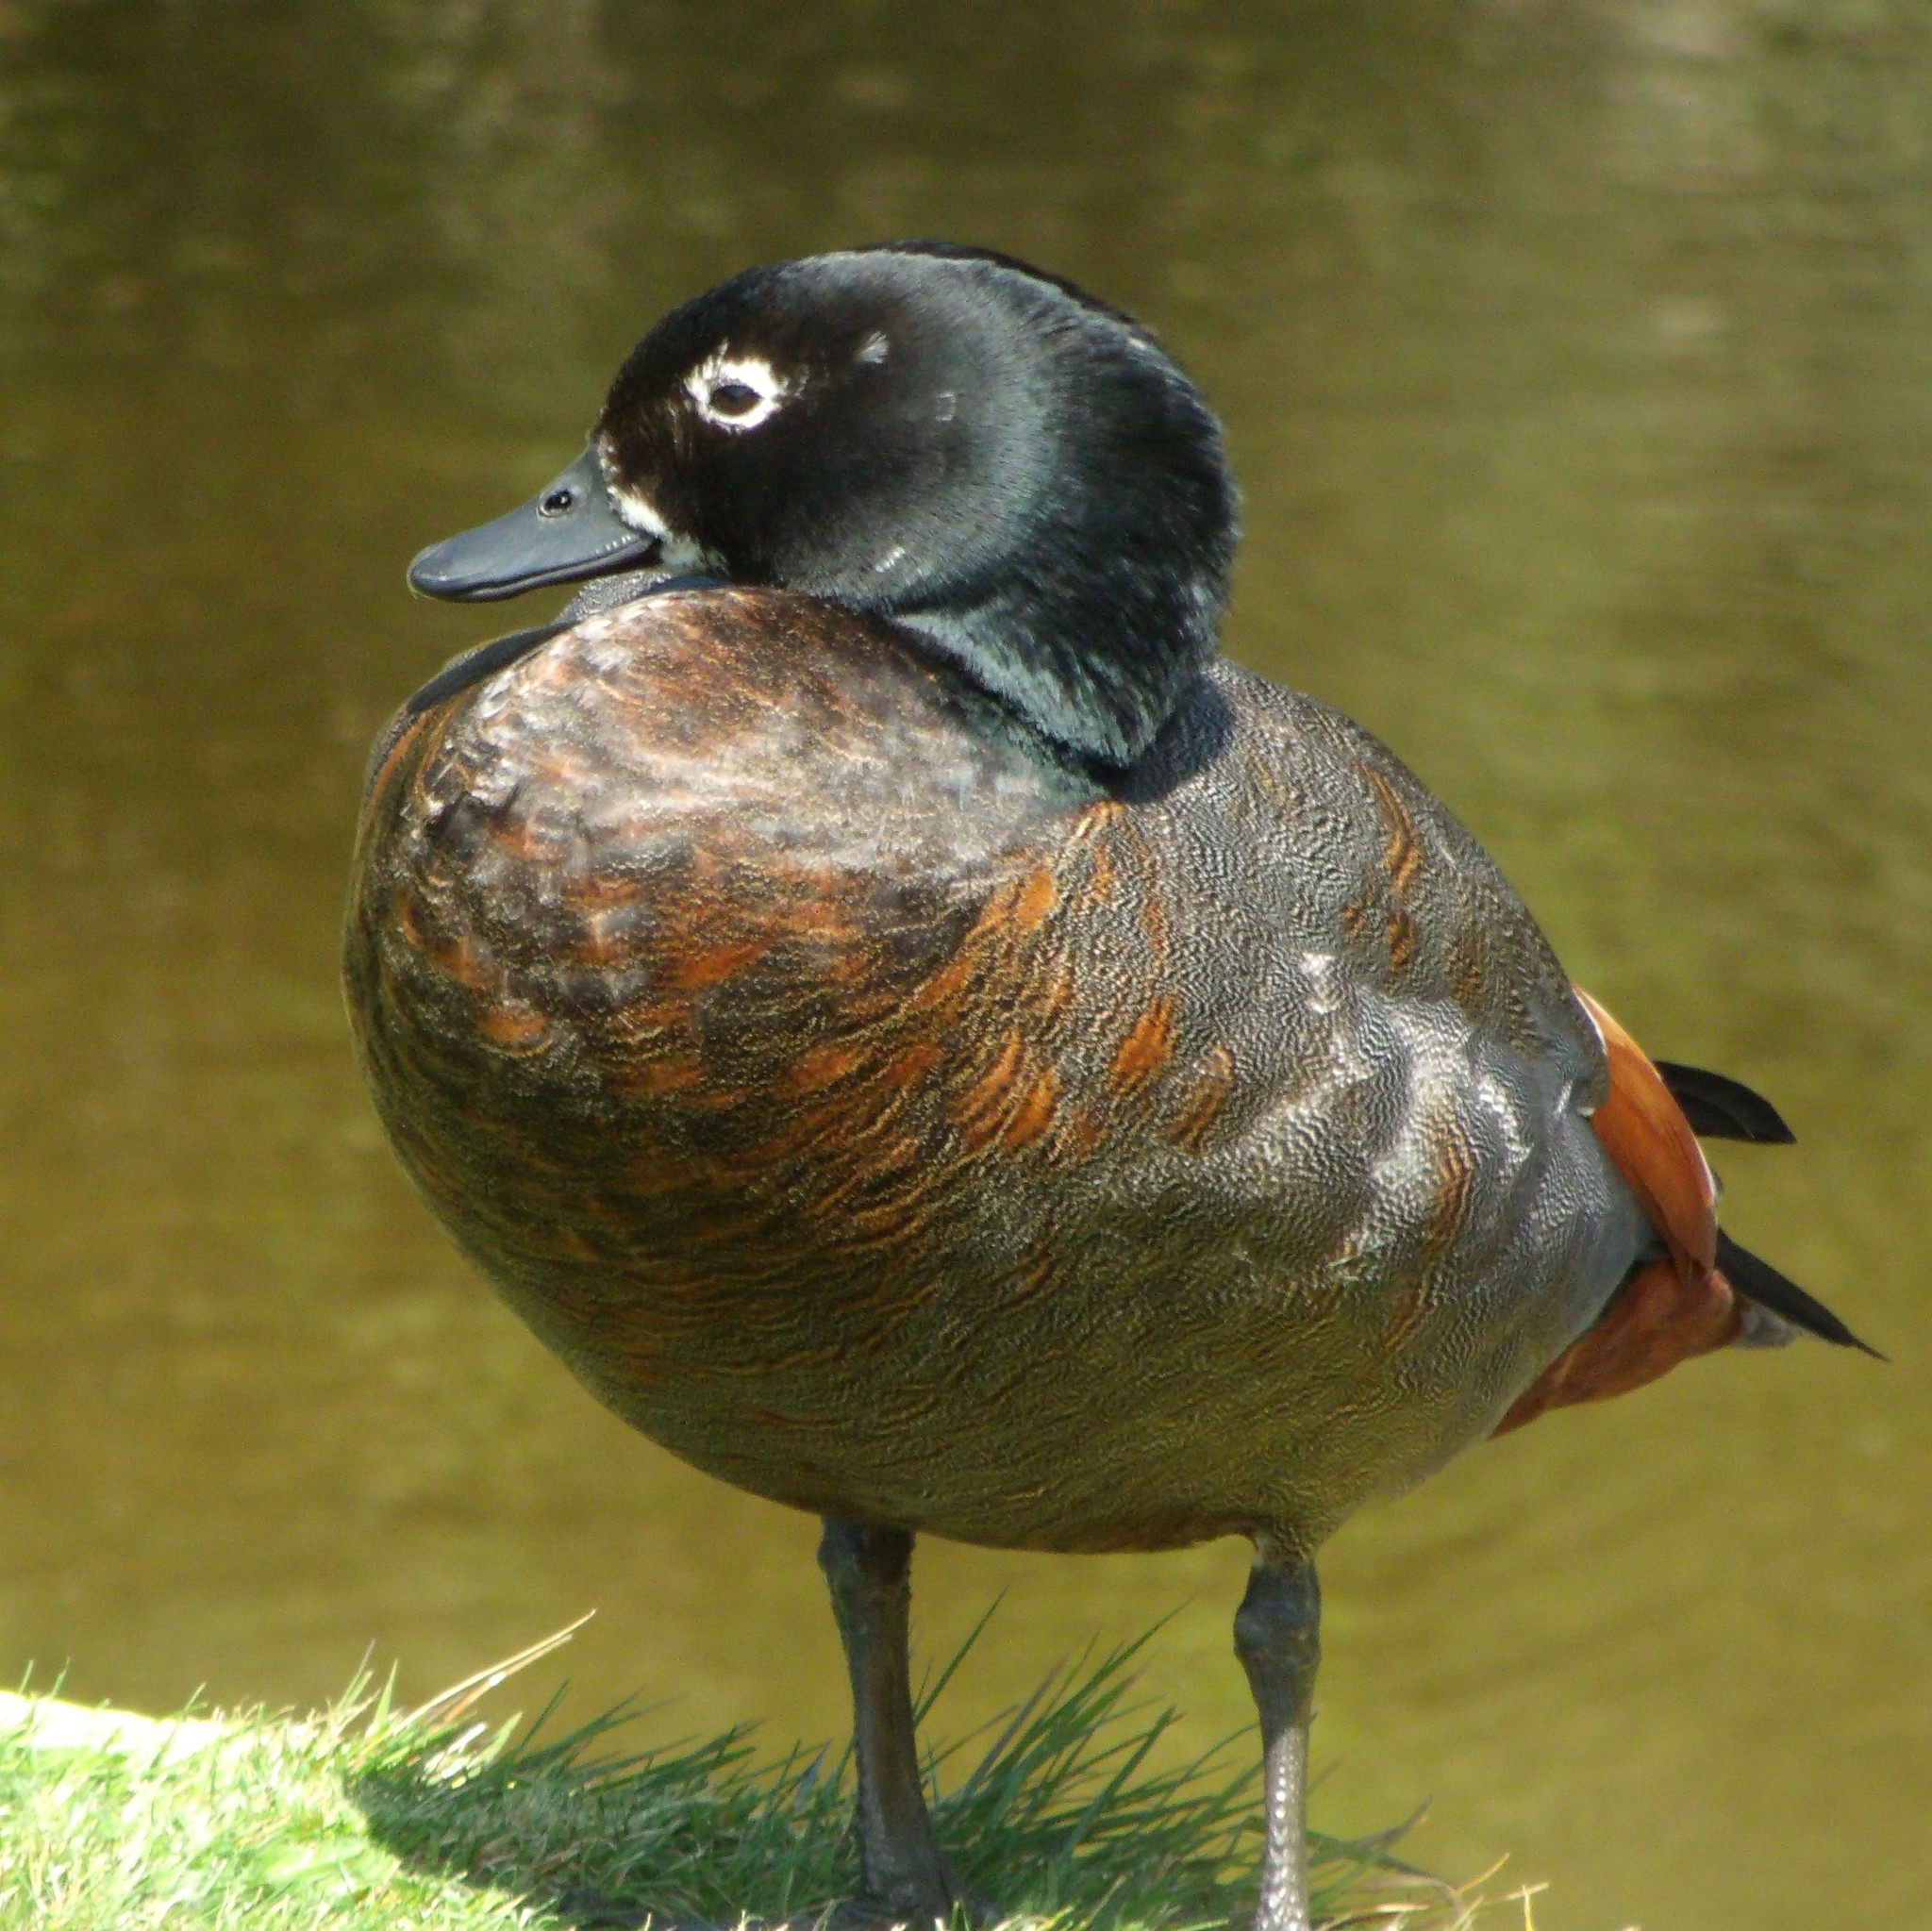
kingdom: Animalia
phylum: Chordata
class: Aves
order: Anseriformes
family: Anatidae
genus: Tadorna
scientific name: Tadorna variegata
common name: Paradise shelduck
